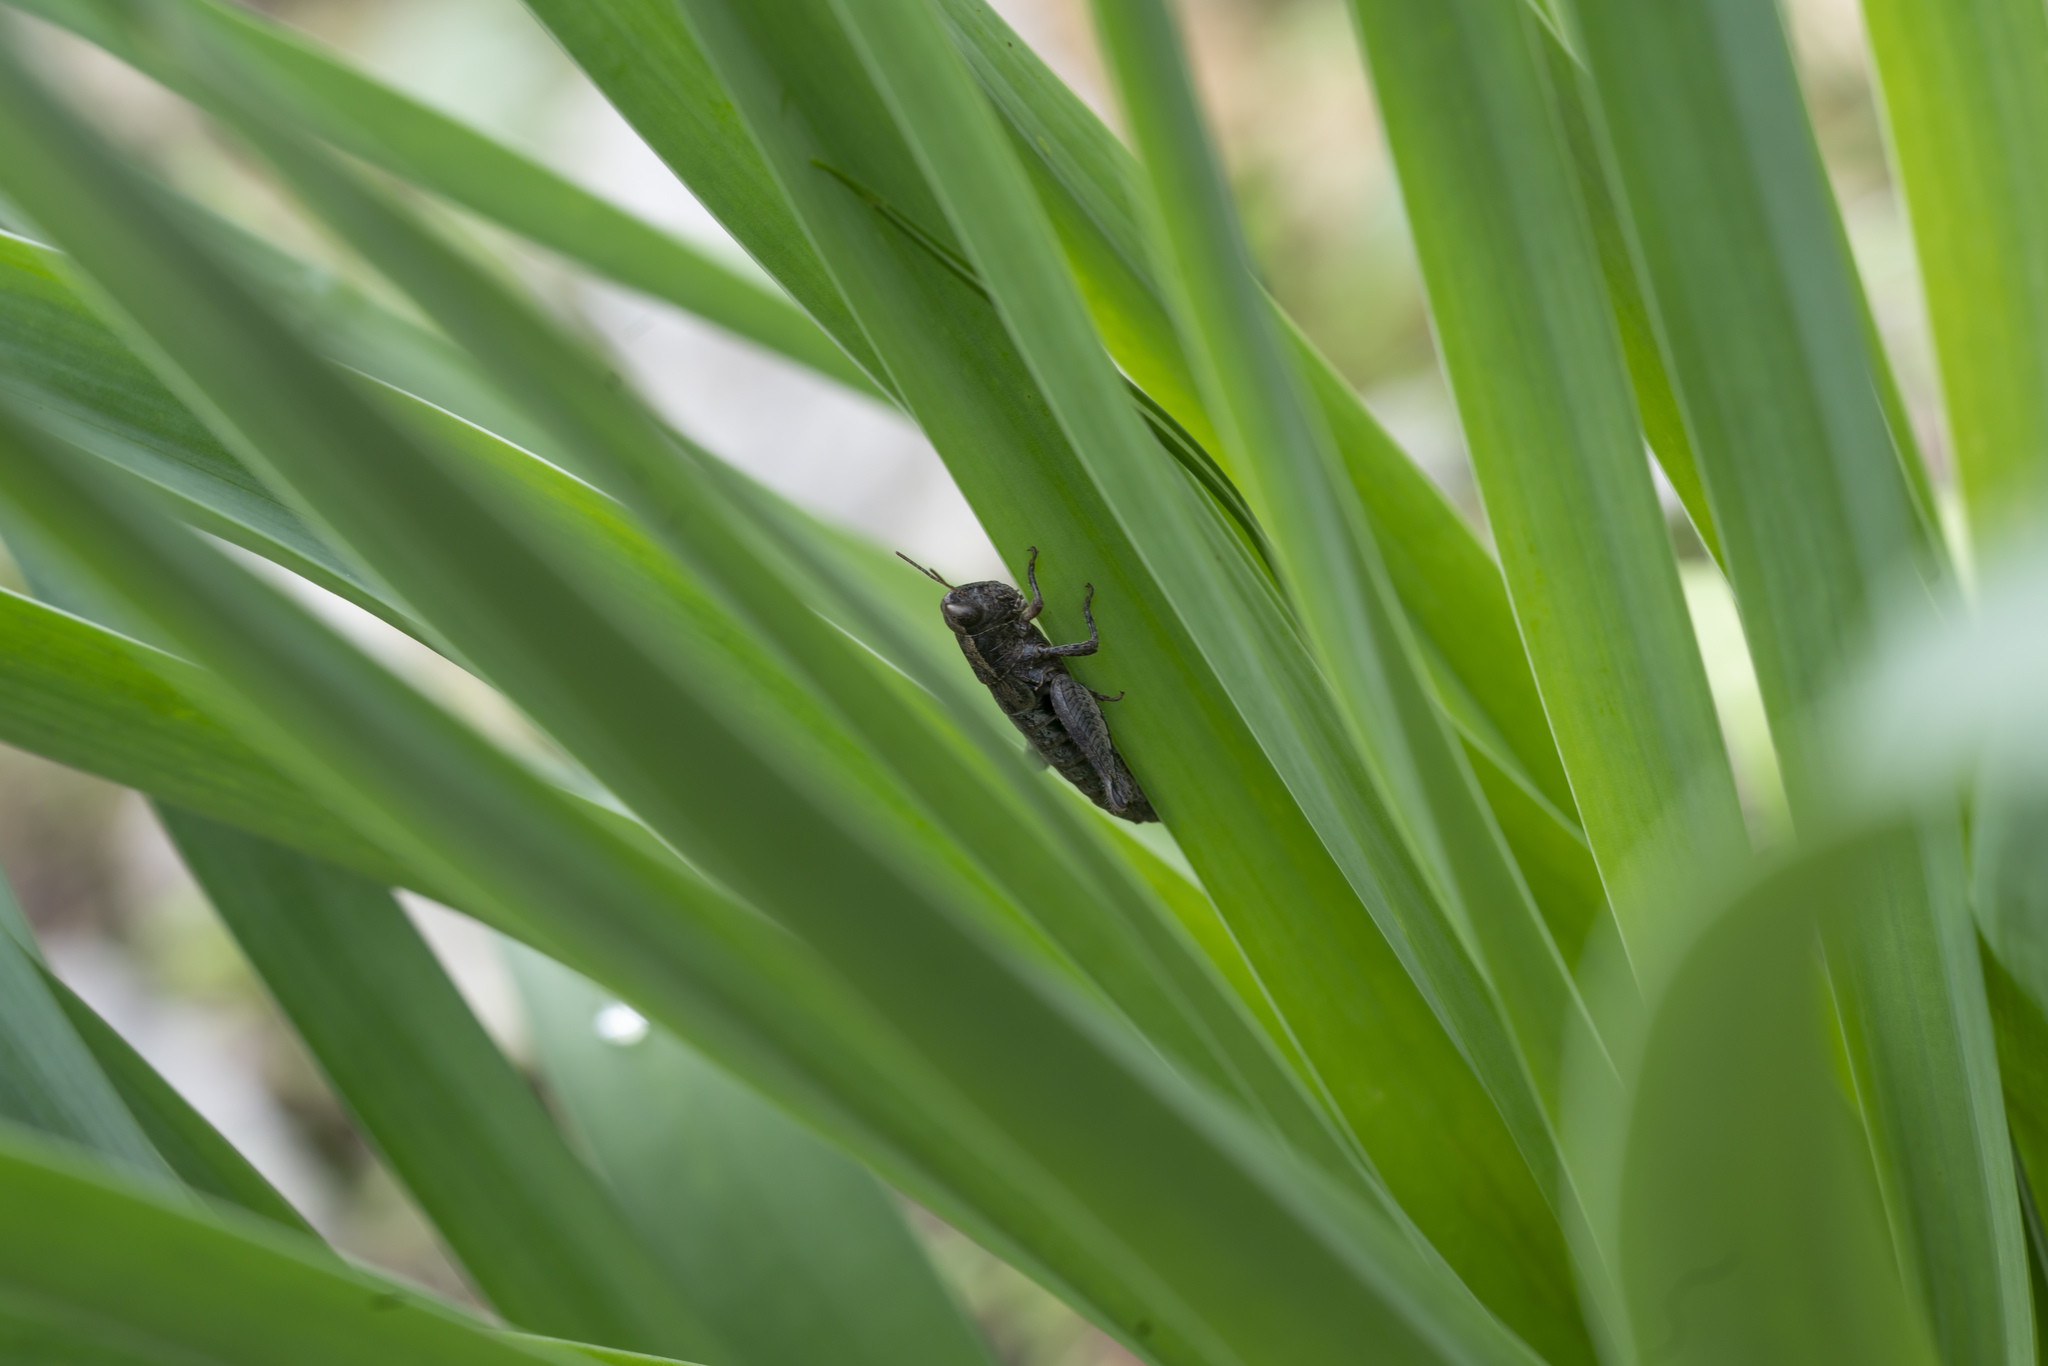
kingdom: Animalia
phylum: Arthropoda
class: Insecta
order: Orthoptera
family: Acrididae
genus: Pezotettix
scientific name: Pezotettix lagoi
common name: Rhodes maquis grasshopper
